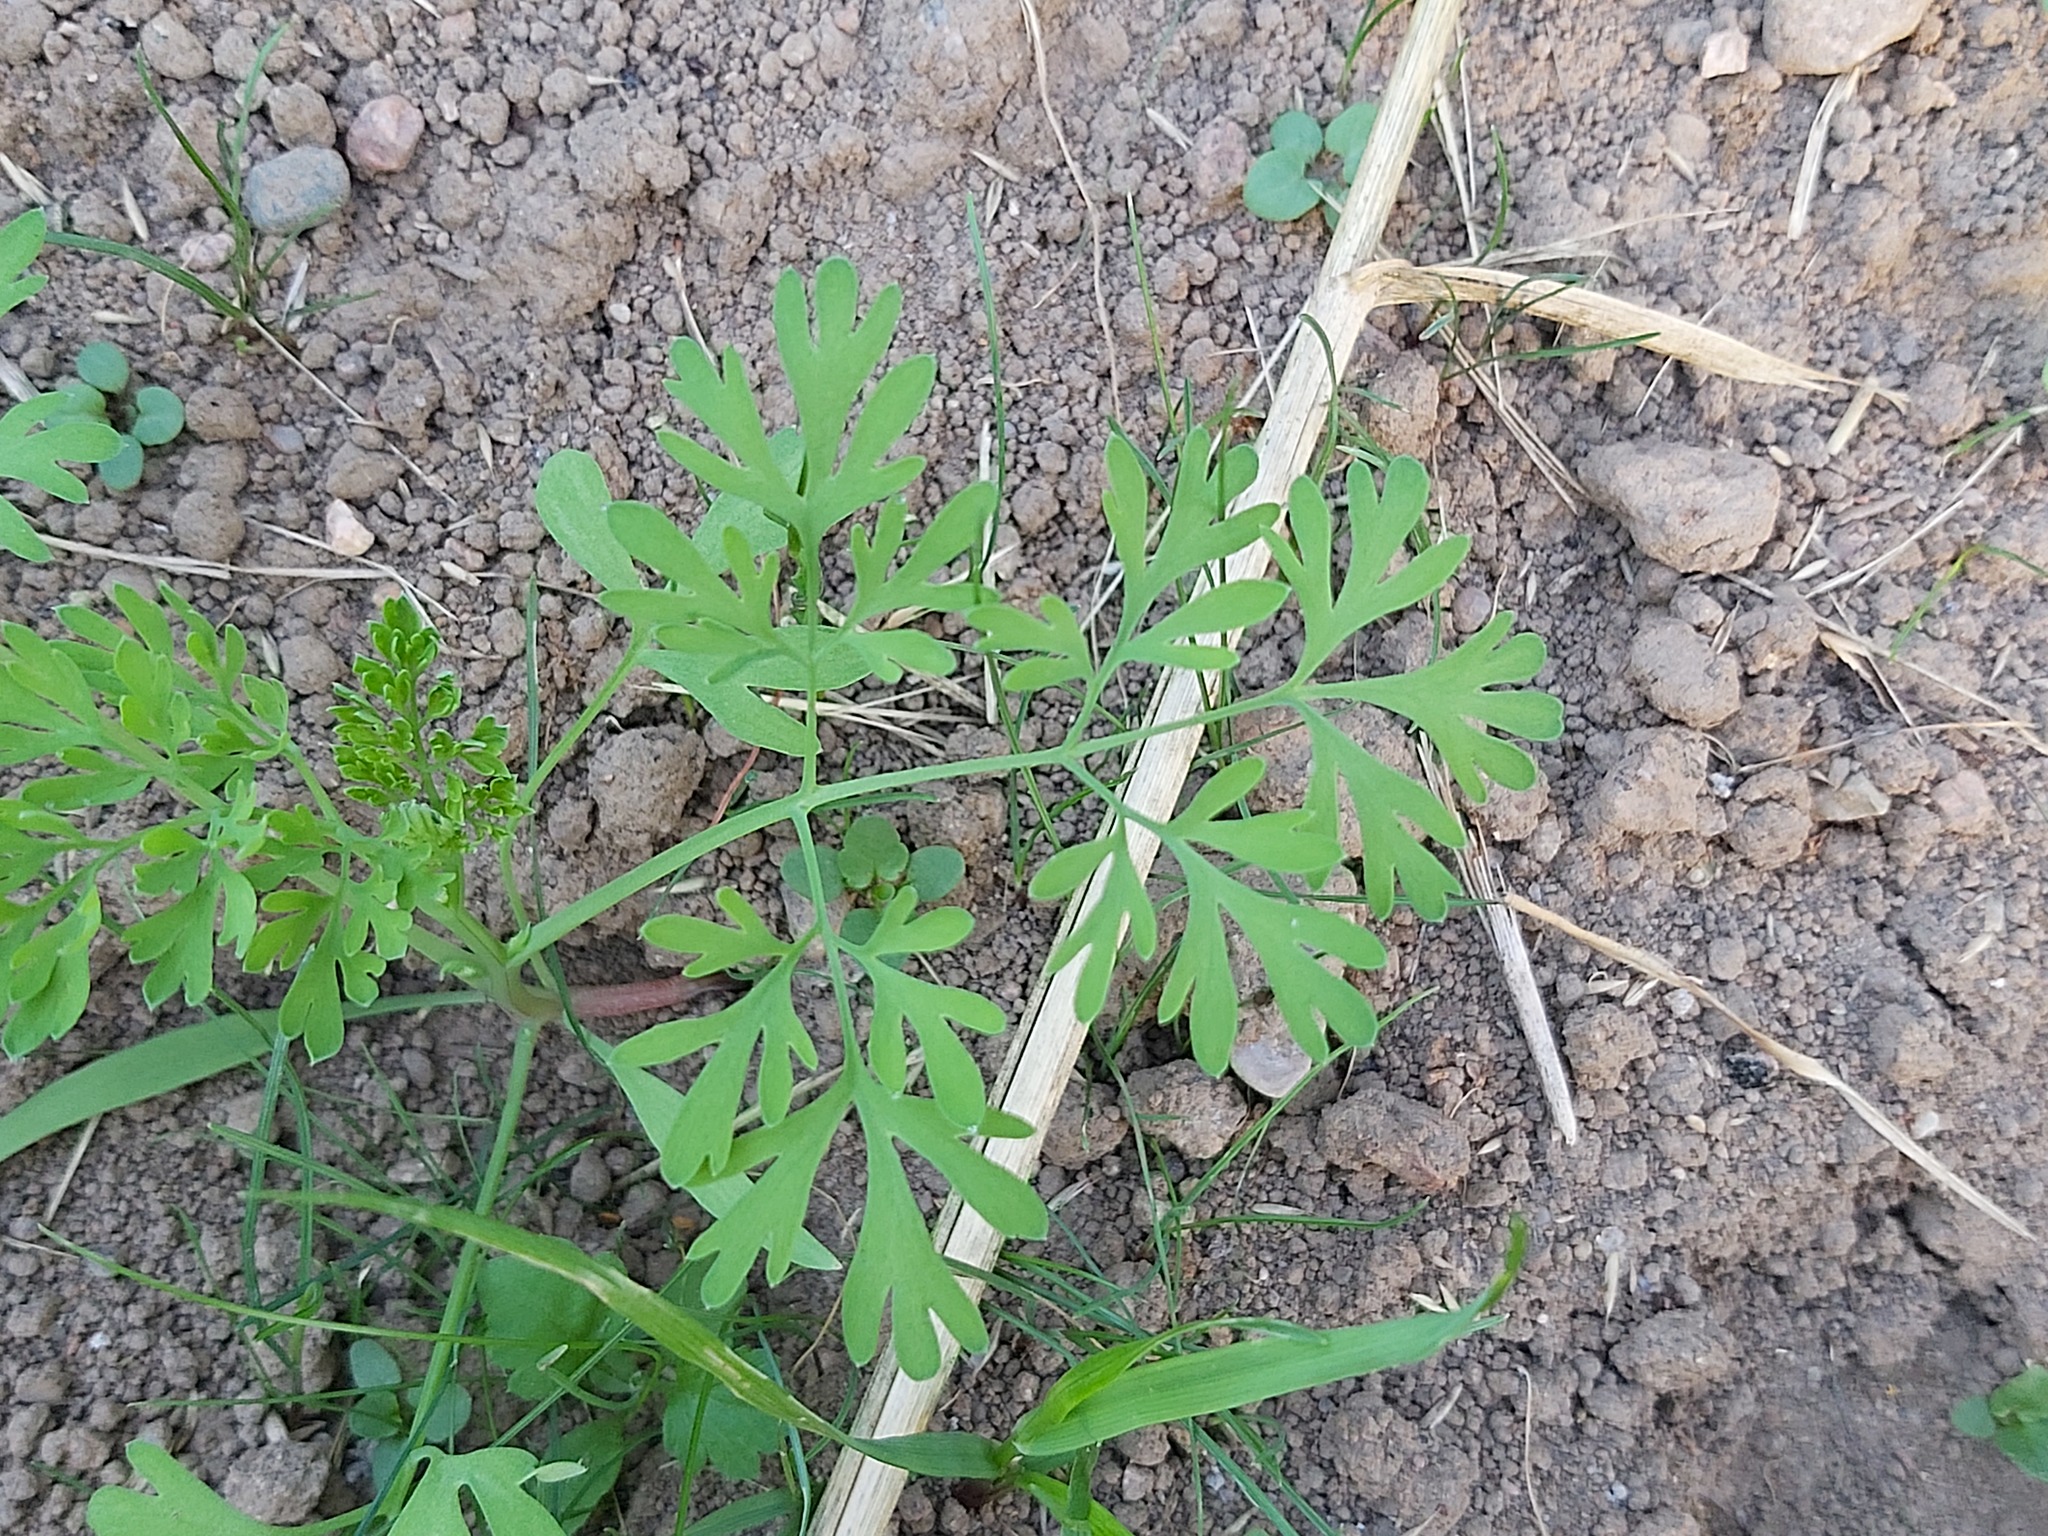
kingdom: Plantae
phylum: Tracheophyta
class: Magnoliopsida
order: Ranunculales
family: Papaveraceae
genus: Fumaria
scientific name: Fumaria officinalis
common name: Common fumitory
